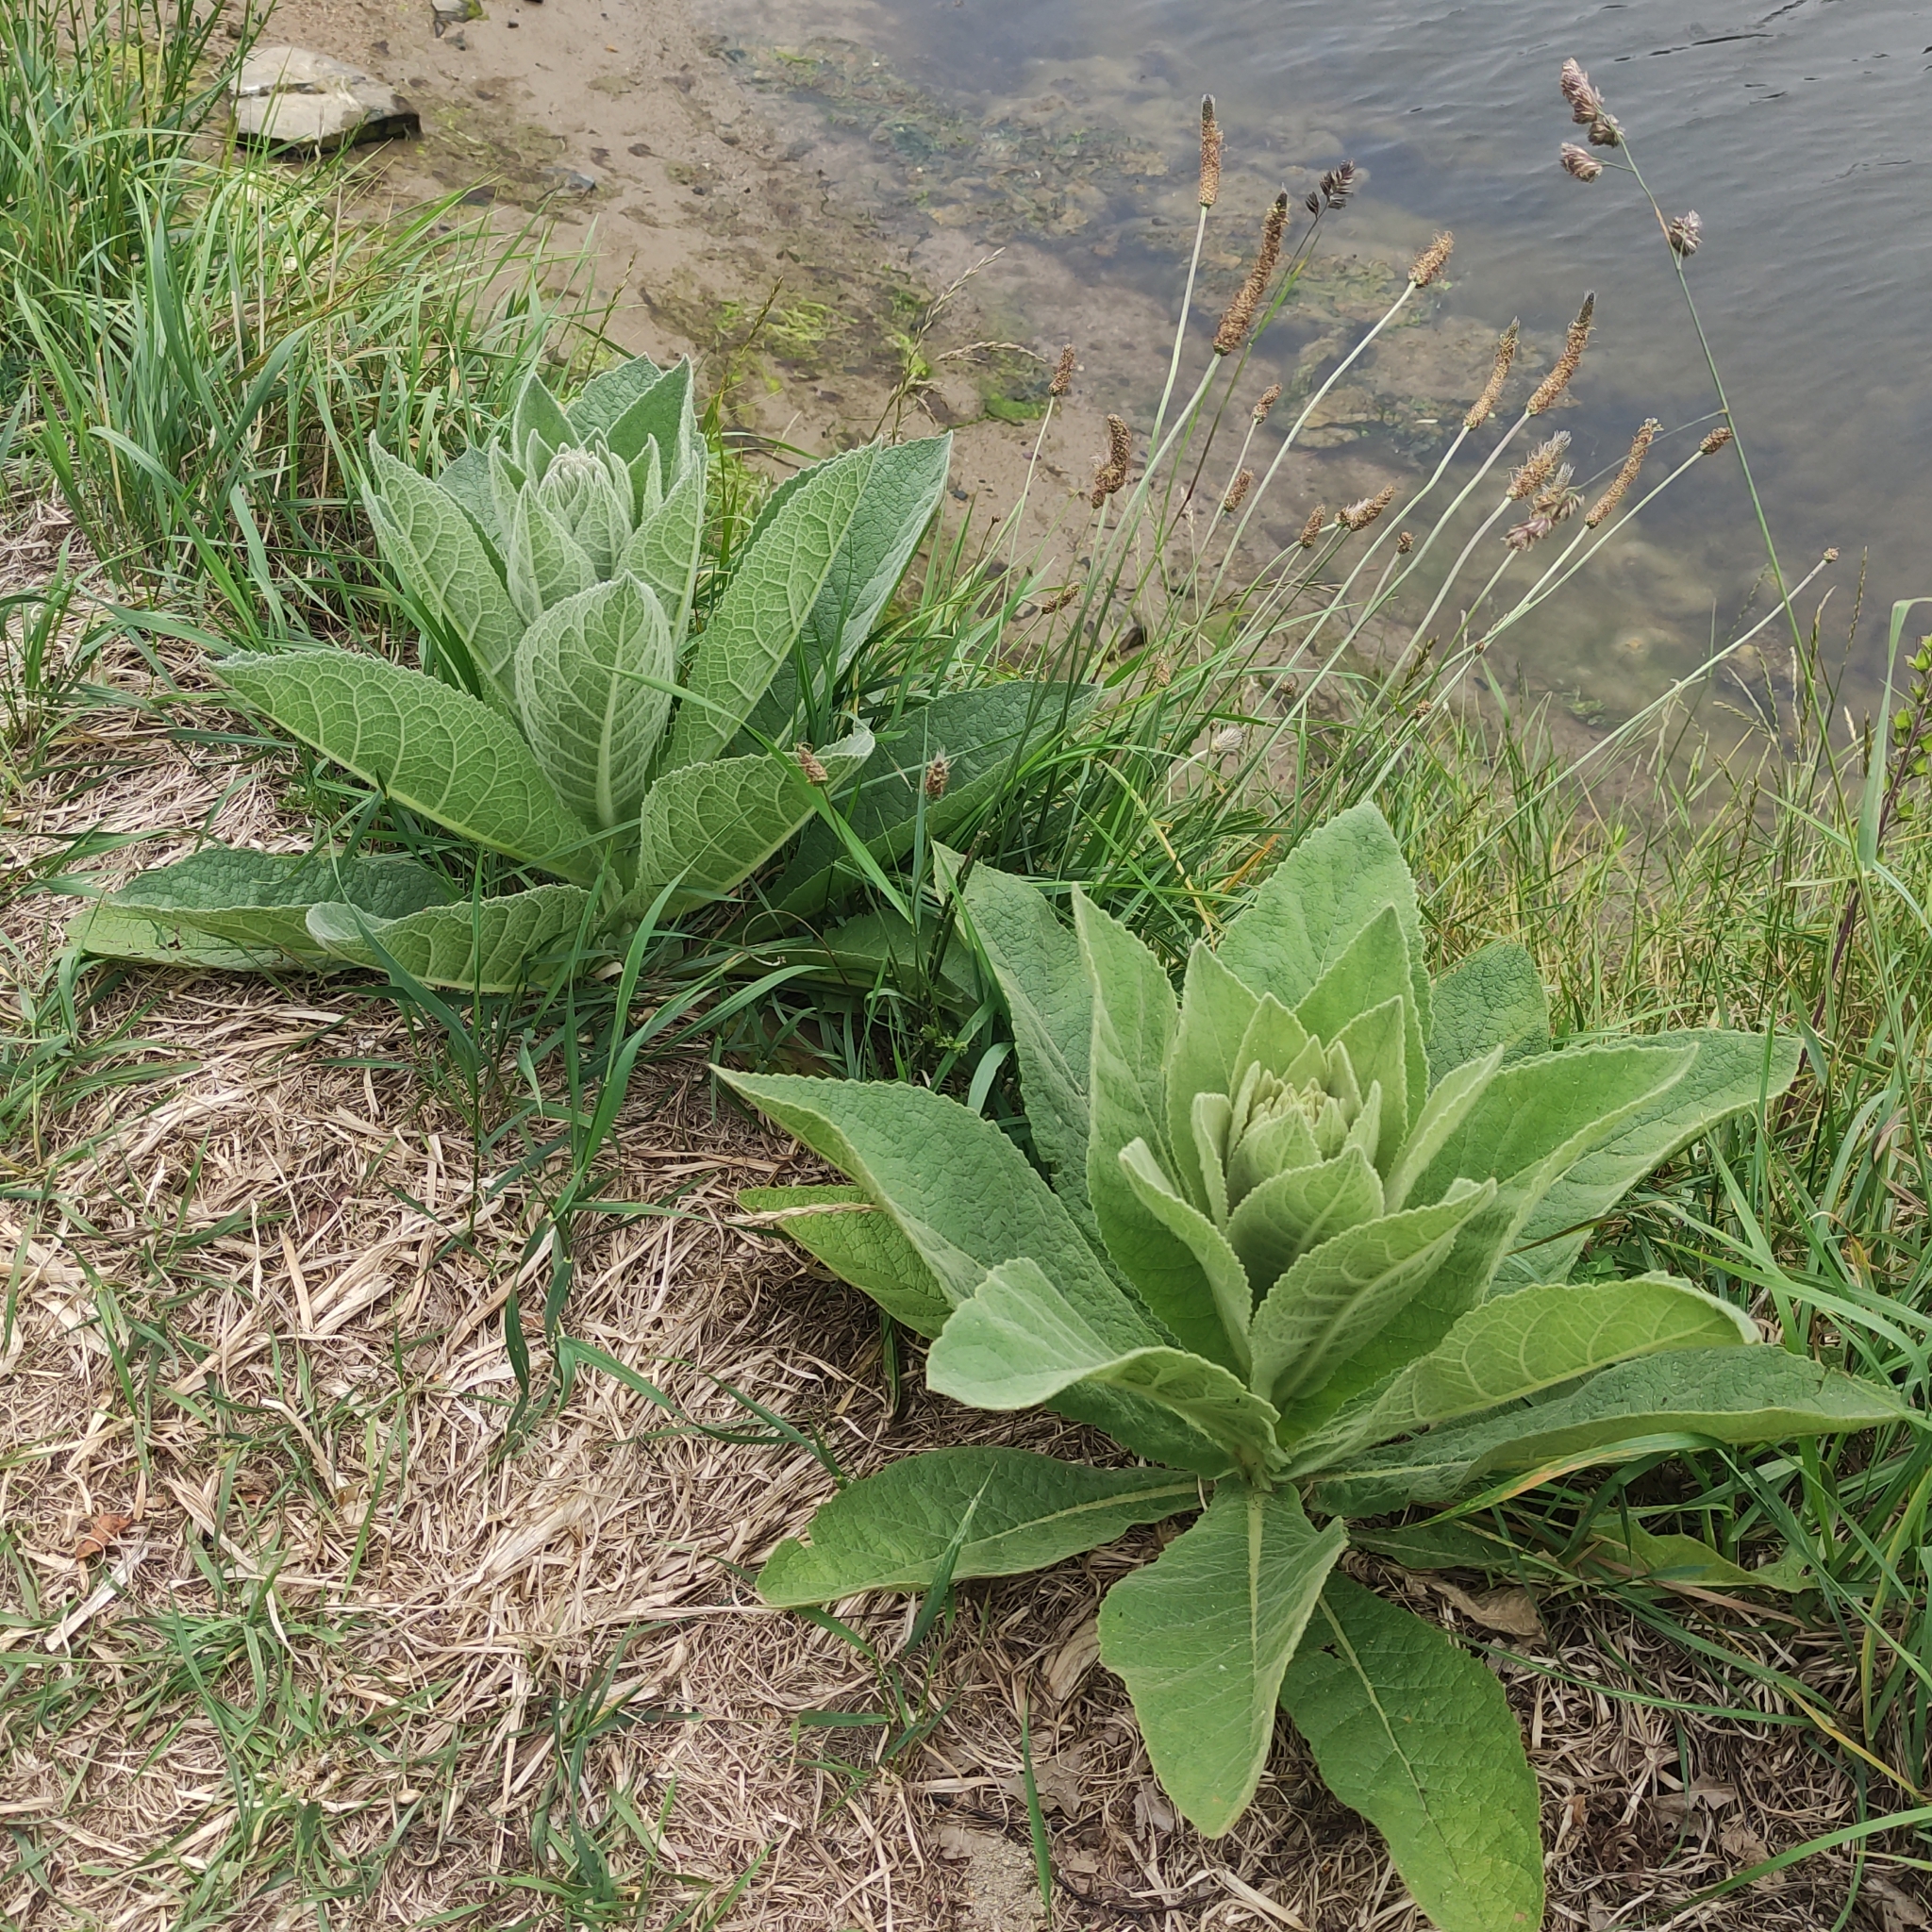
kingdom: Plantae
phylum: Tracheophyta
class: Magnoliopsida
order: Lamiales
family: Scrophulariaceae
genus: Verbascum
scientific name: Verbascum thapsus
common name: Common mullein
